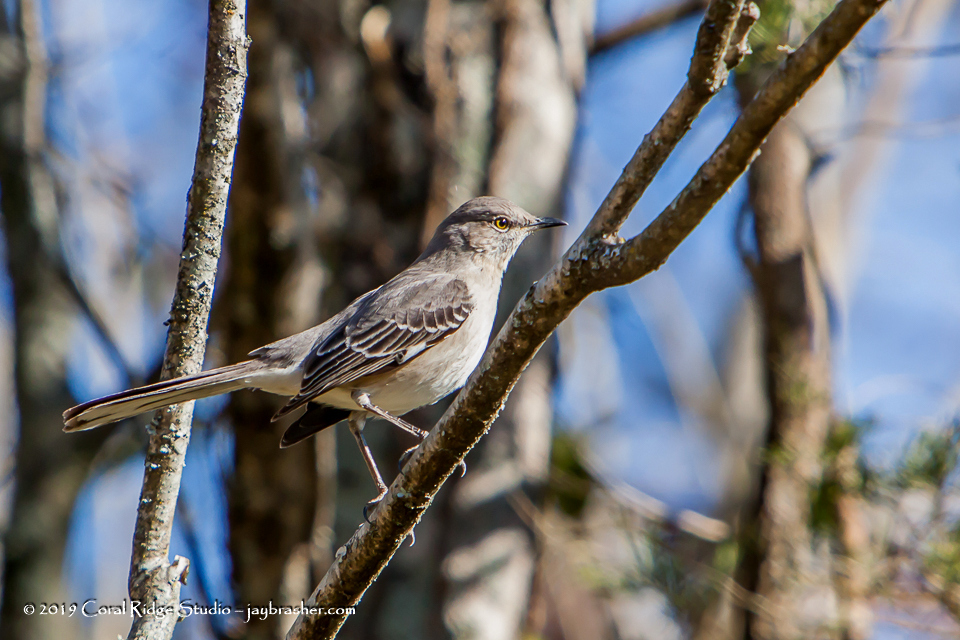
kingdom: Animalia
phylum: Chordata
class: Aves
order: Passeriformes
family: Mimidae
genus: Mimus
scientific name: Mimus polyglottos
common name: Northern mockingbird
